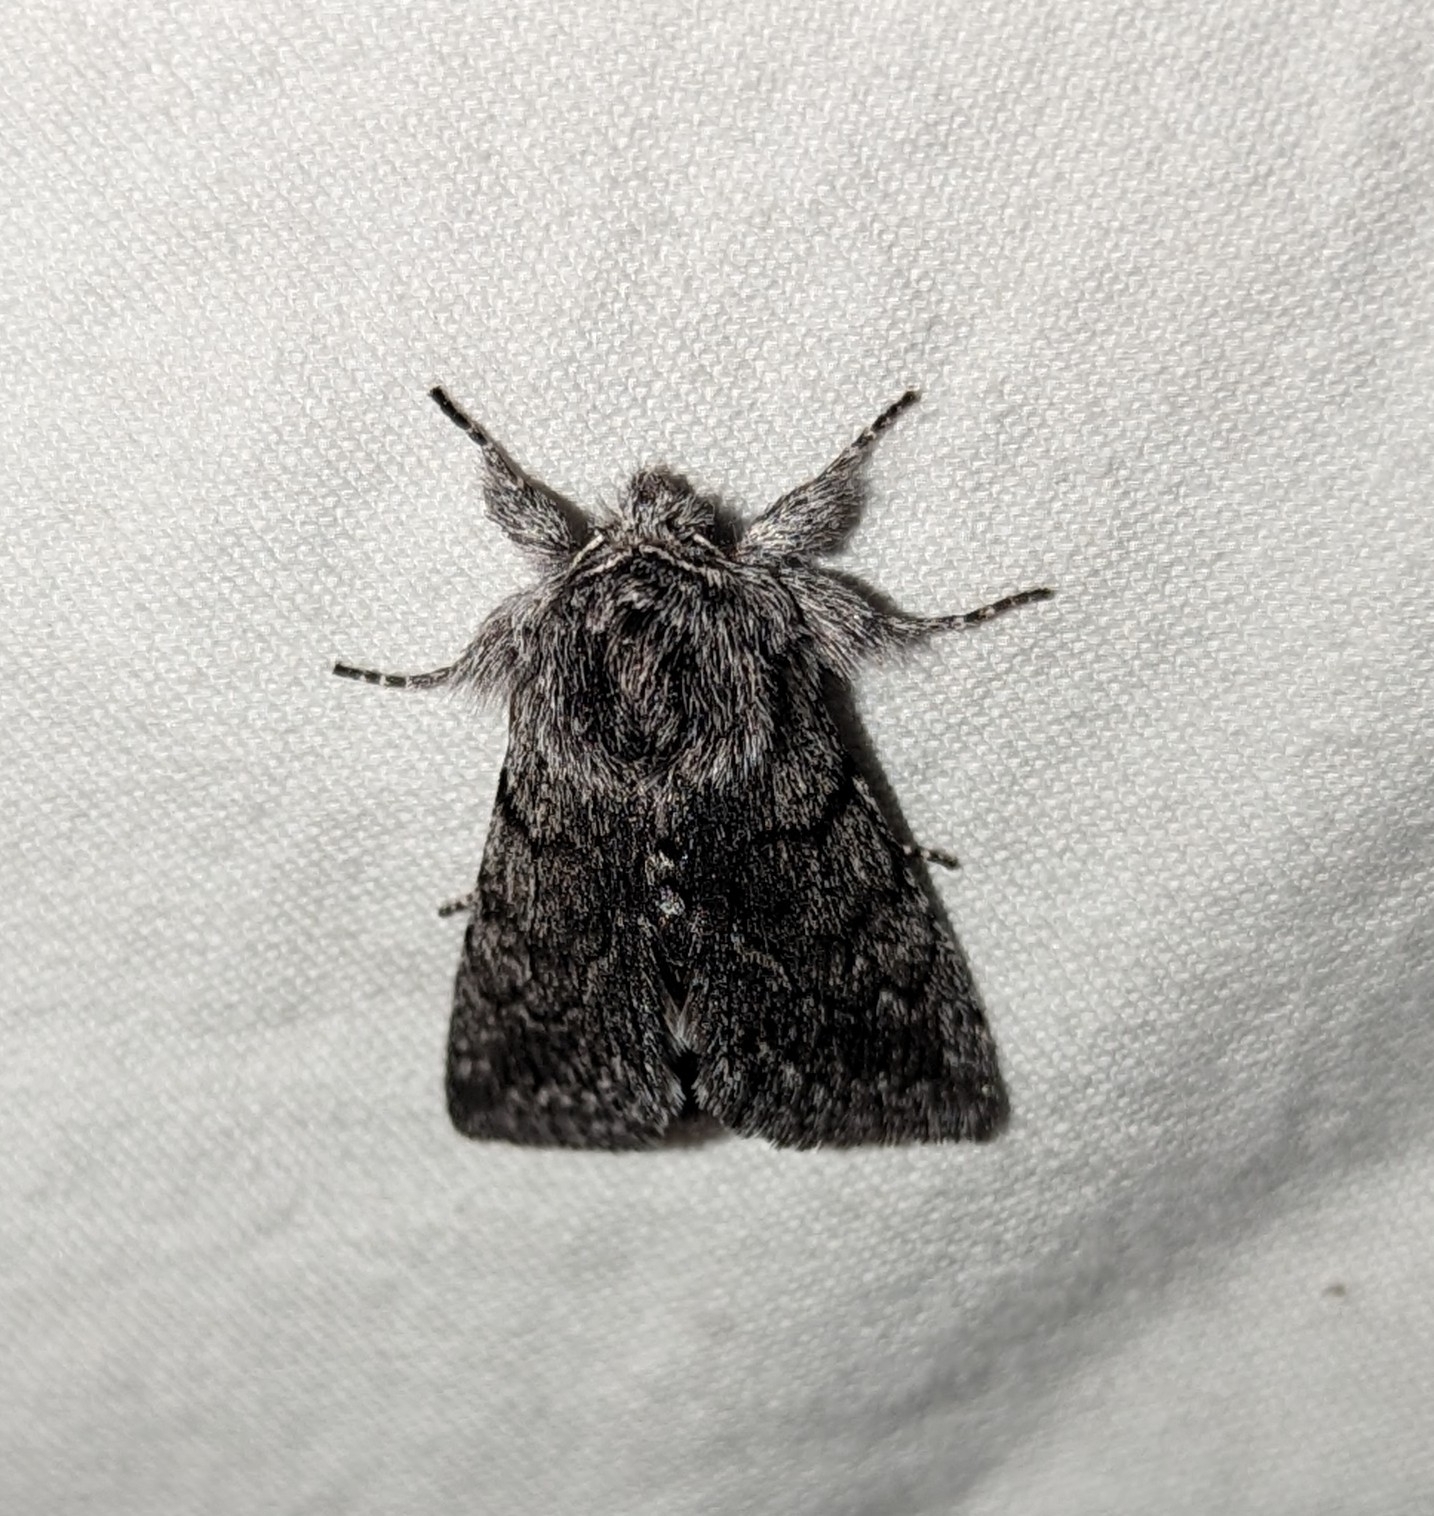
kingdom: Animalia
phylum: Arthropoda
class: Insecta
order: Lepidoptera
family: Noctuidae
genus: Pleromelloida
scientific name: Pleromelloida conserta
